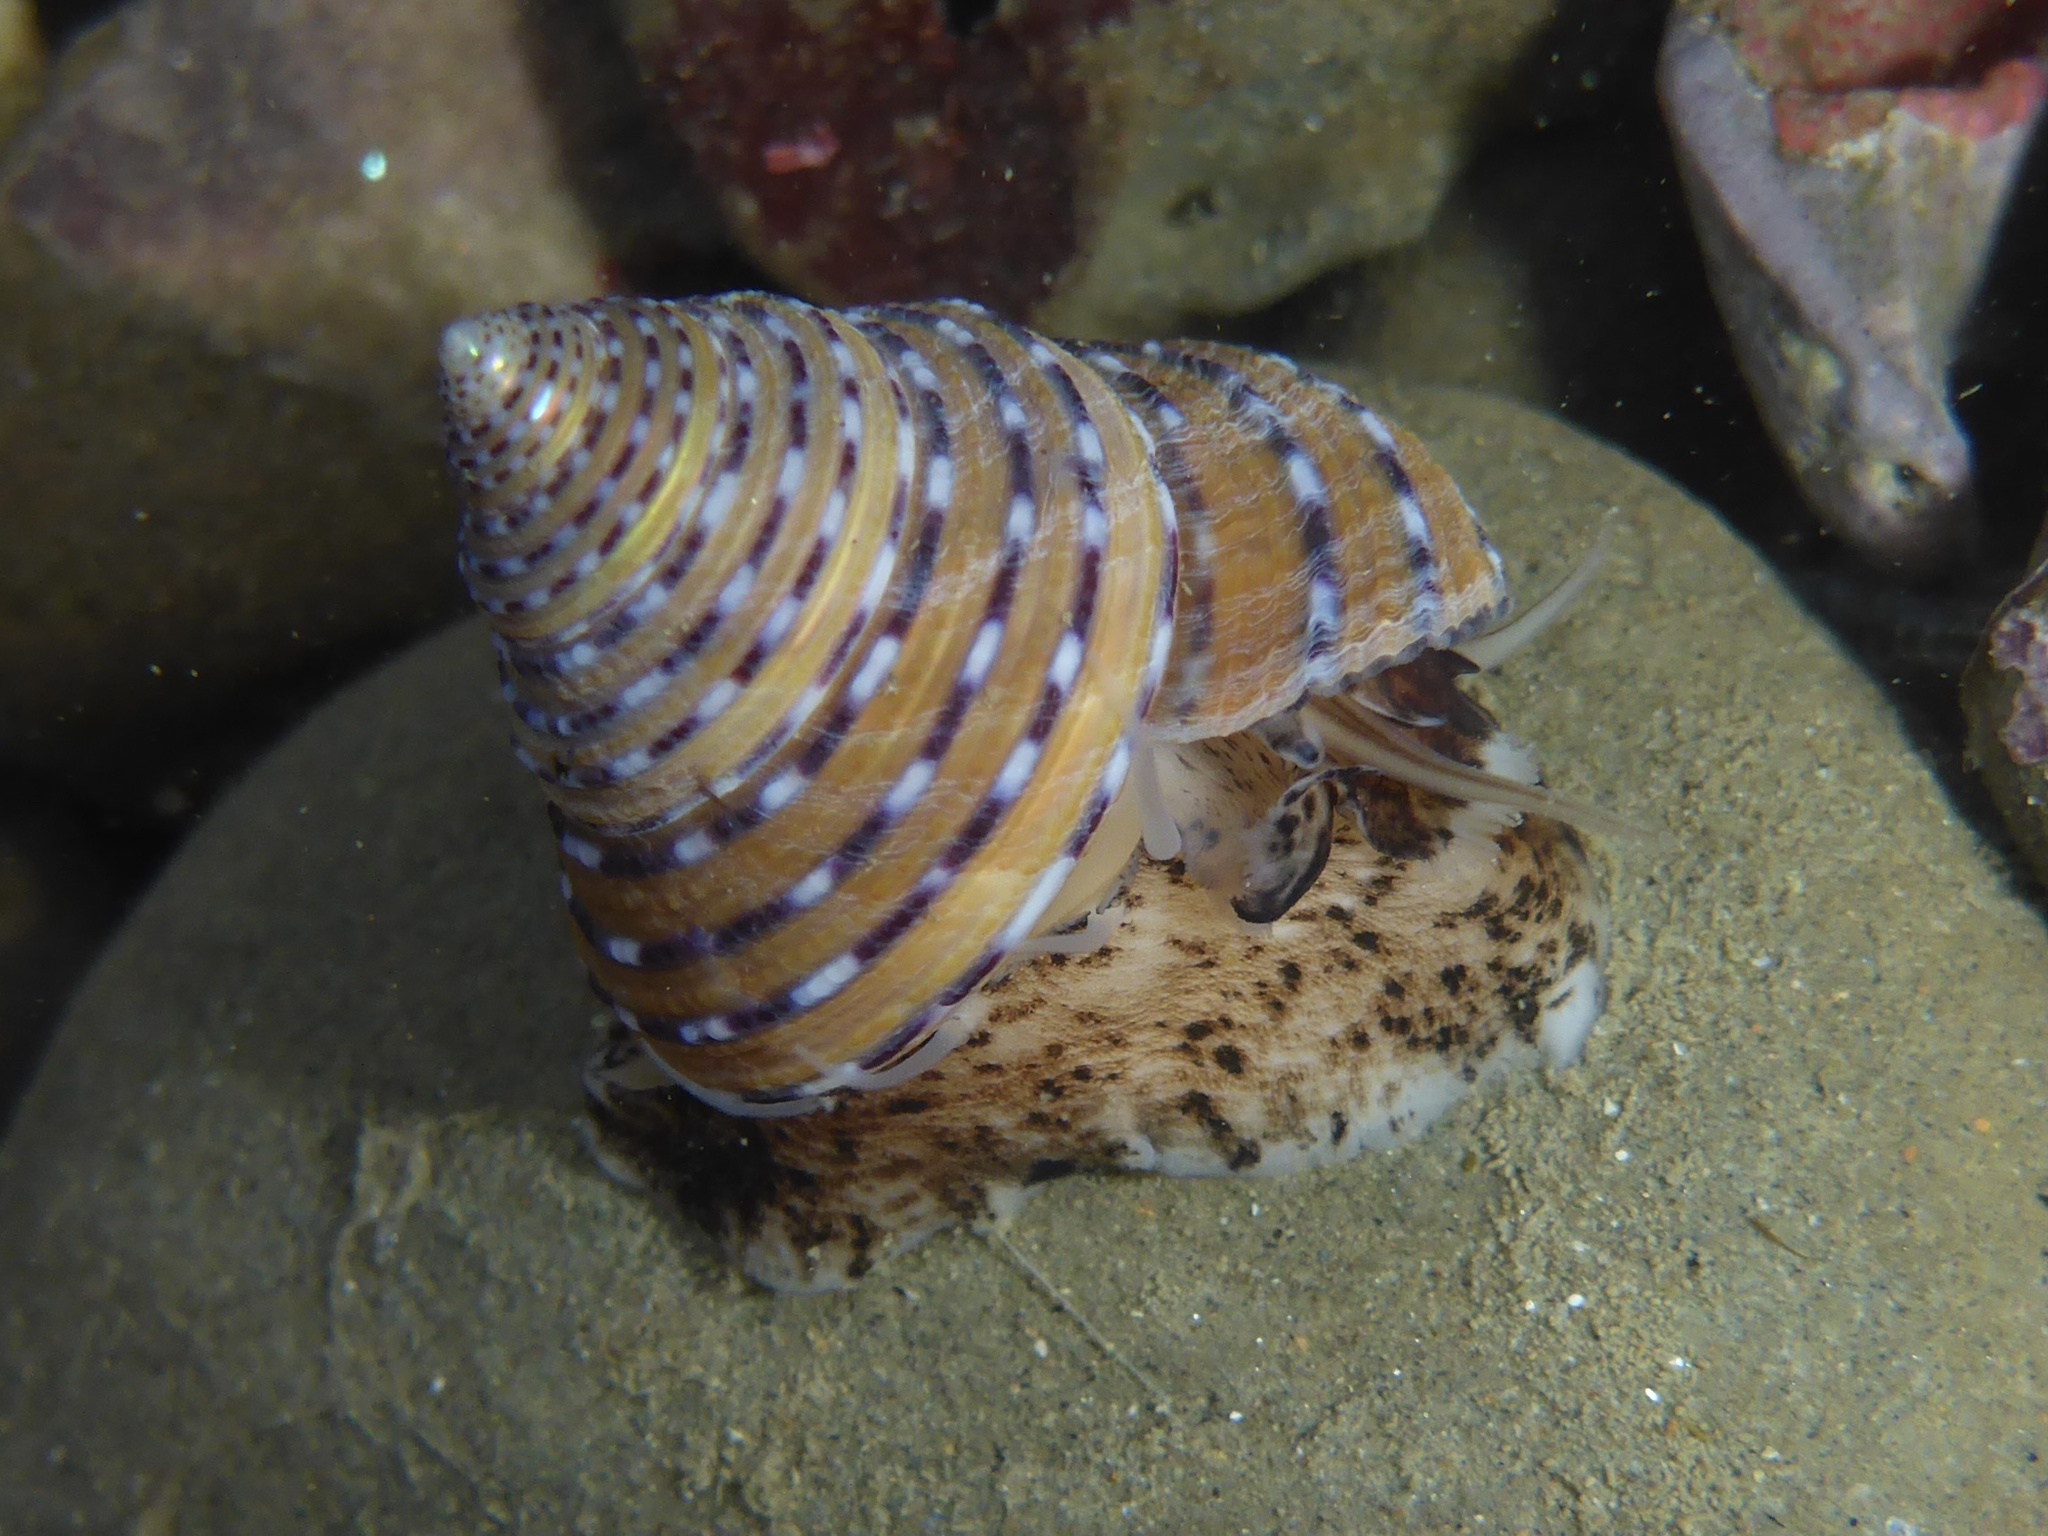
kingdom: Animalia
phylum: Mollusca
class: Gastropoda
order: Trochida
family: Calliostomatidae
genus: Calliostoma
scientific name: Calliostoma tricolor
